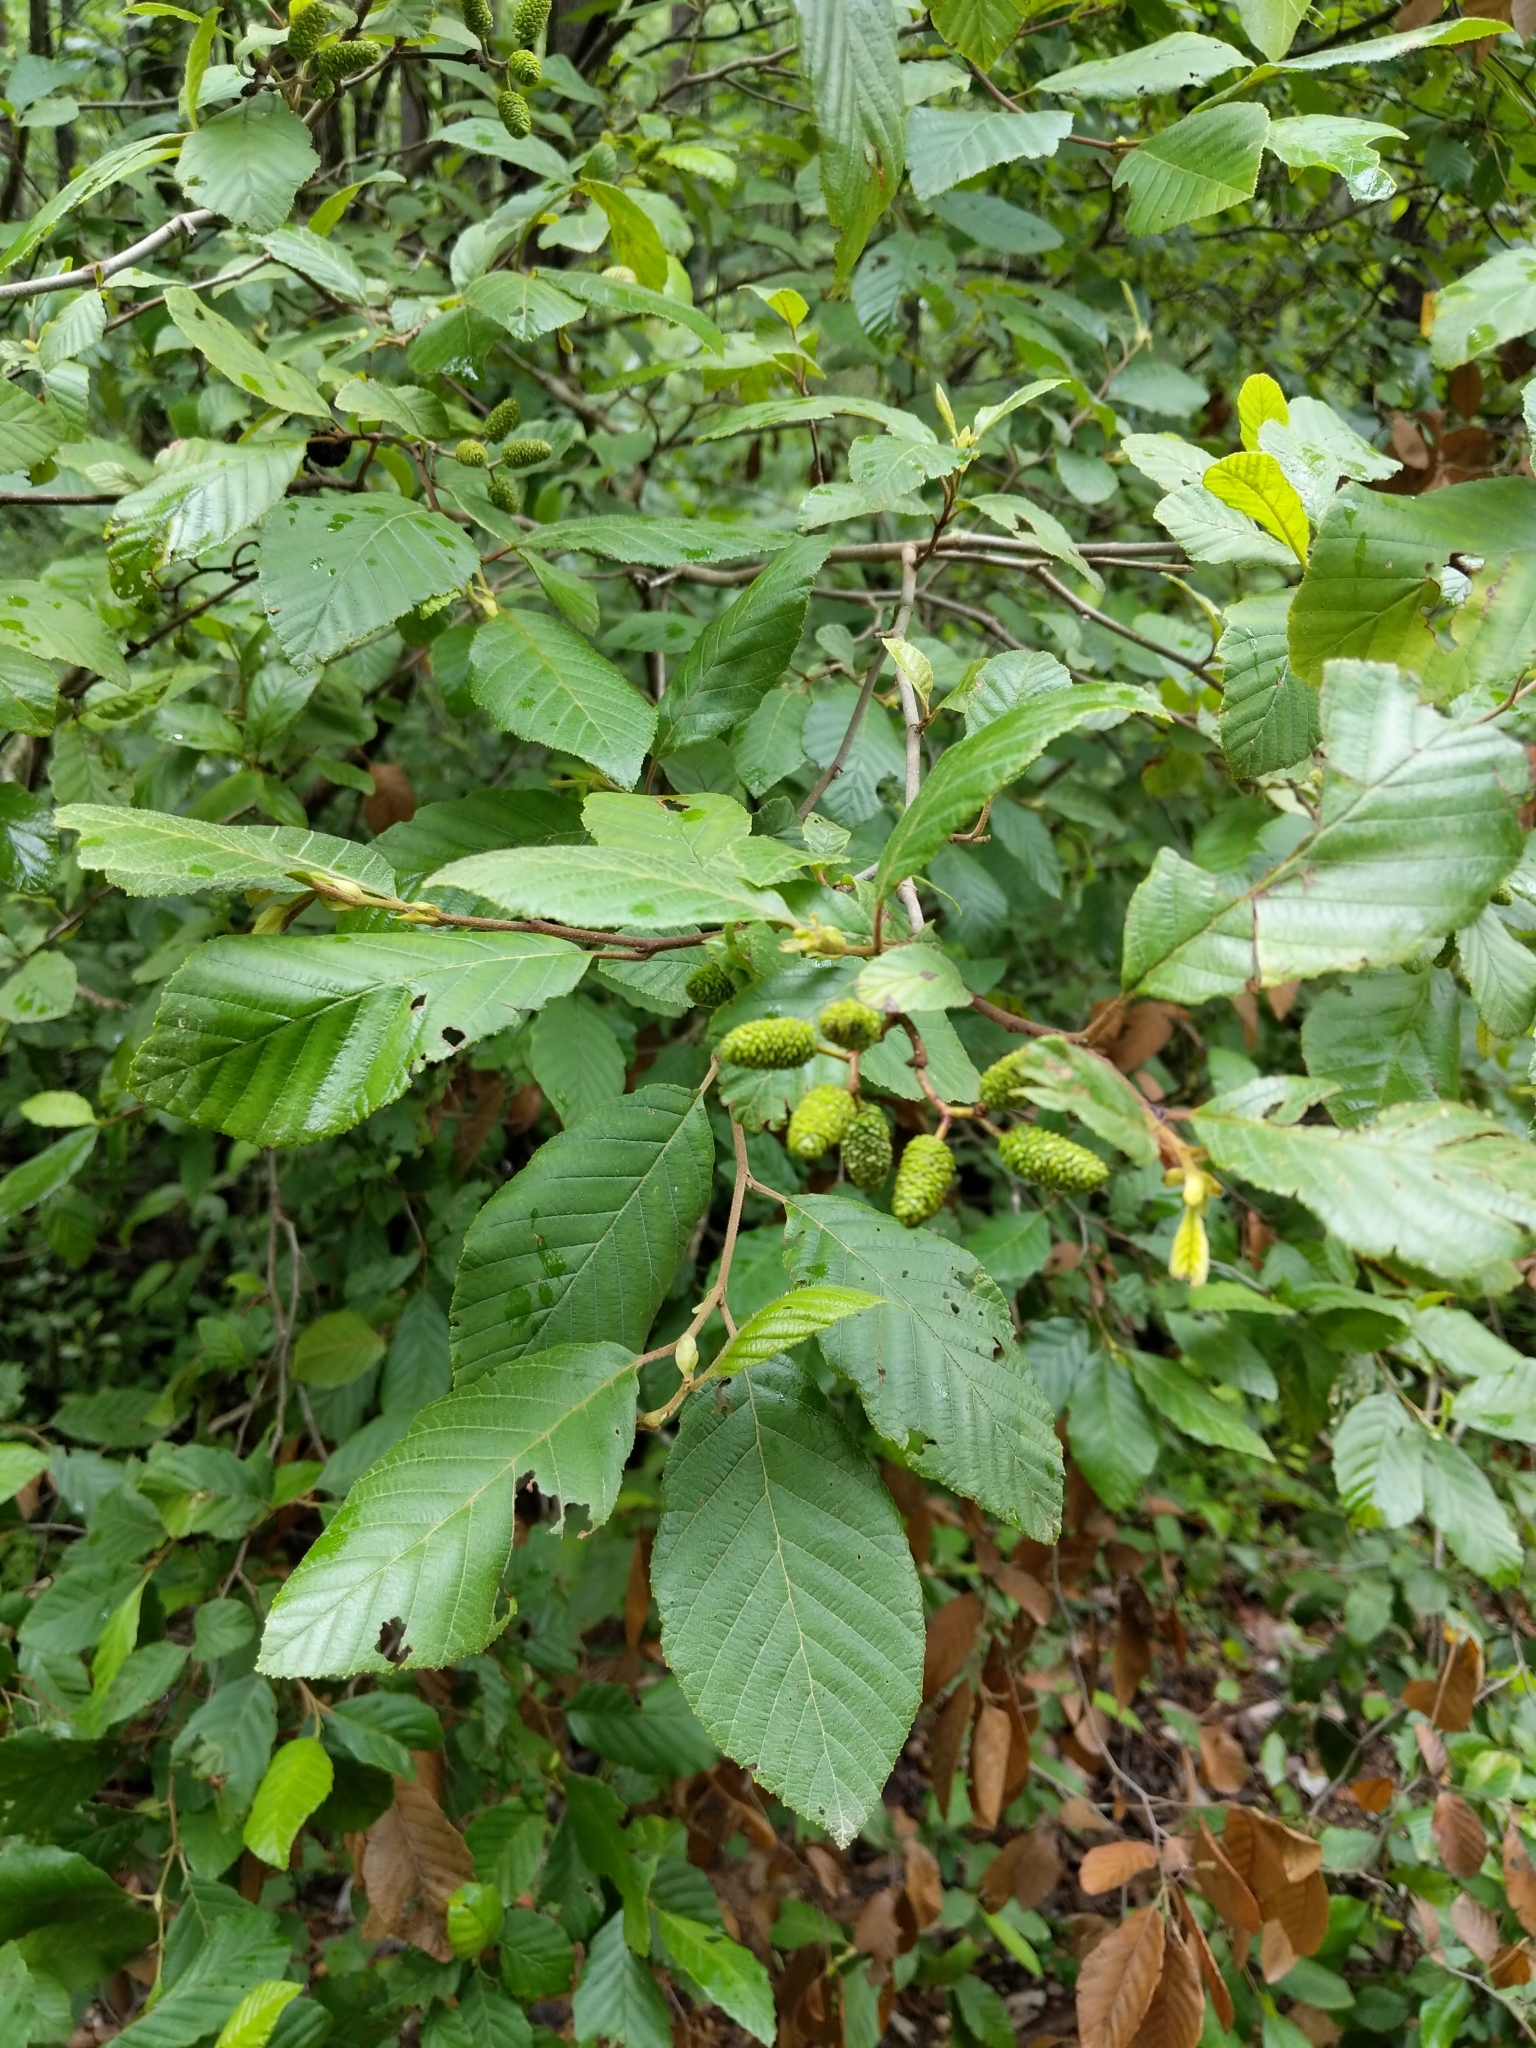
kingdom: Plantae
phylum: Tracheophyta
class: Magnoliopsida
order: Fagales
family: Betulaceae
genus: Alnus
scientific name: Alnus serrulata
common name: Hazel alder
